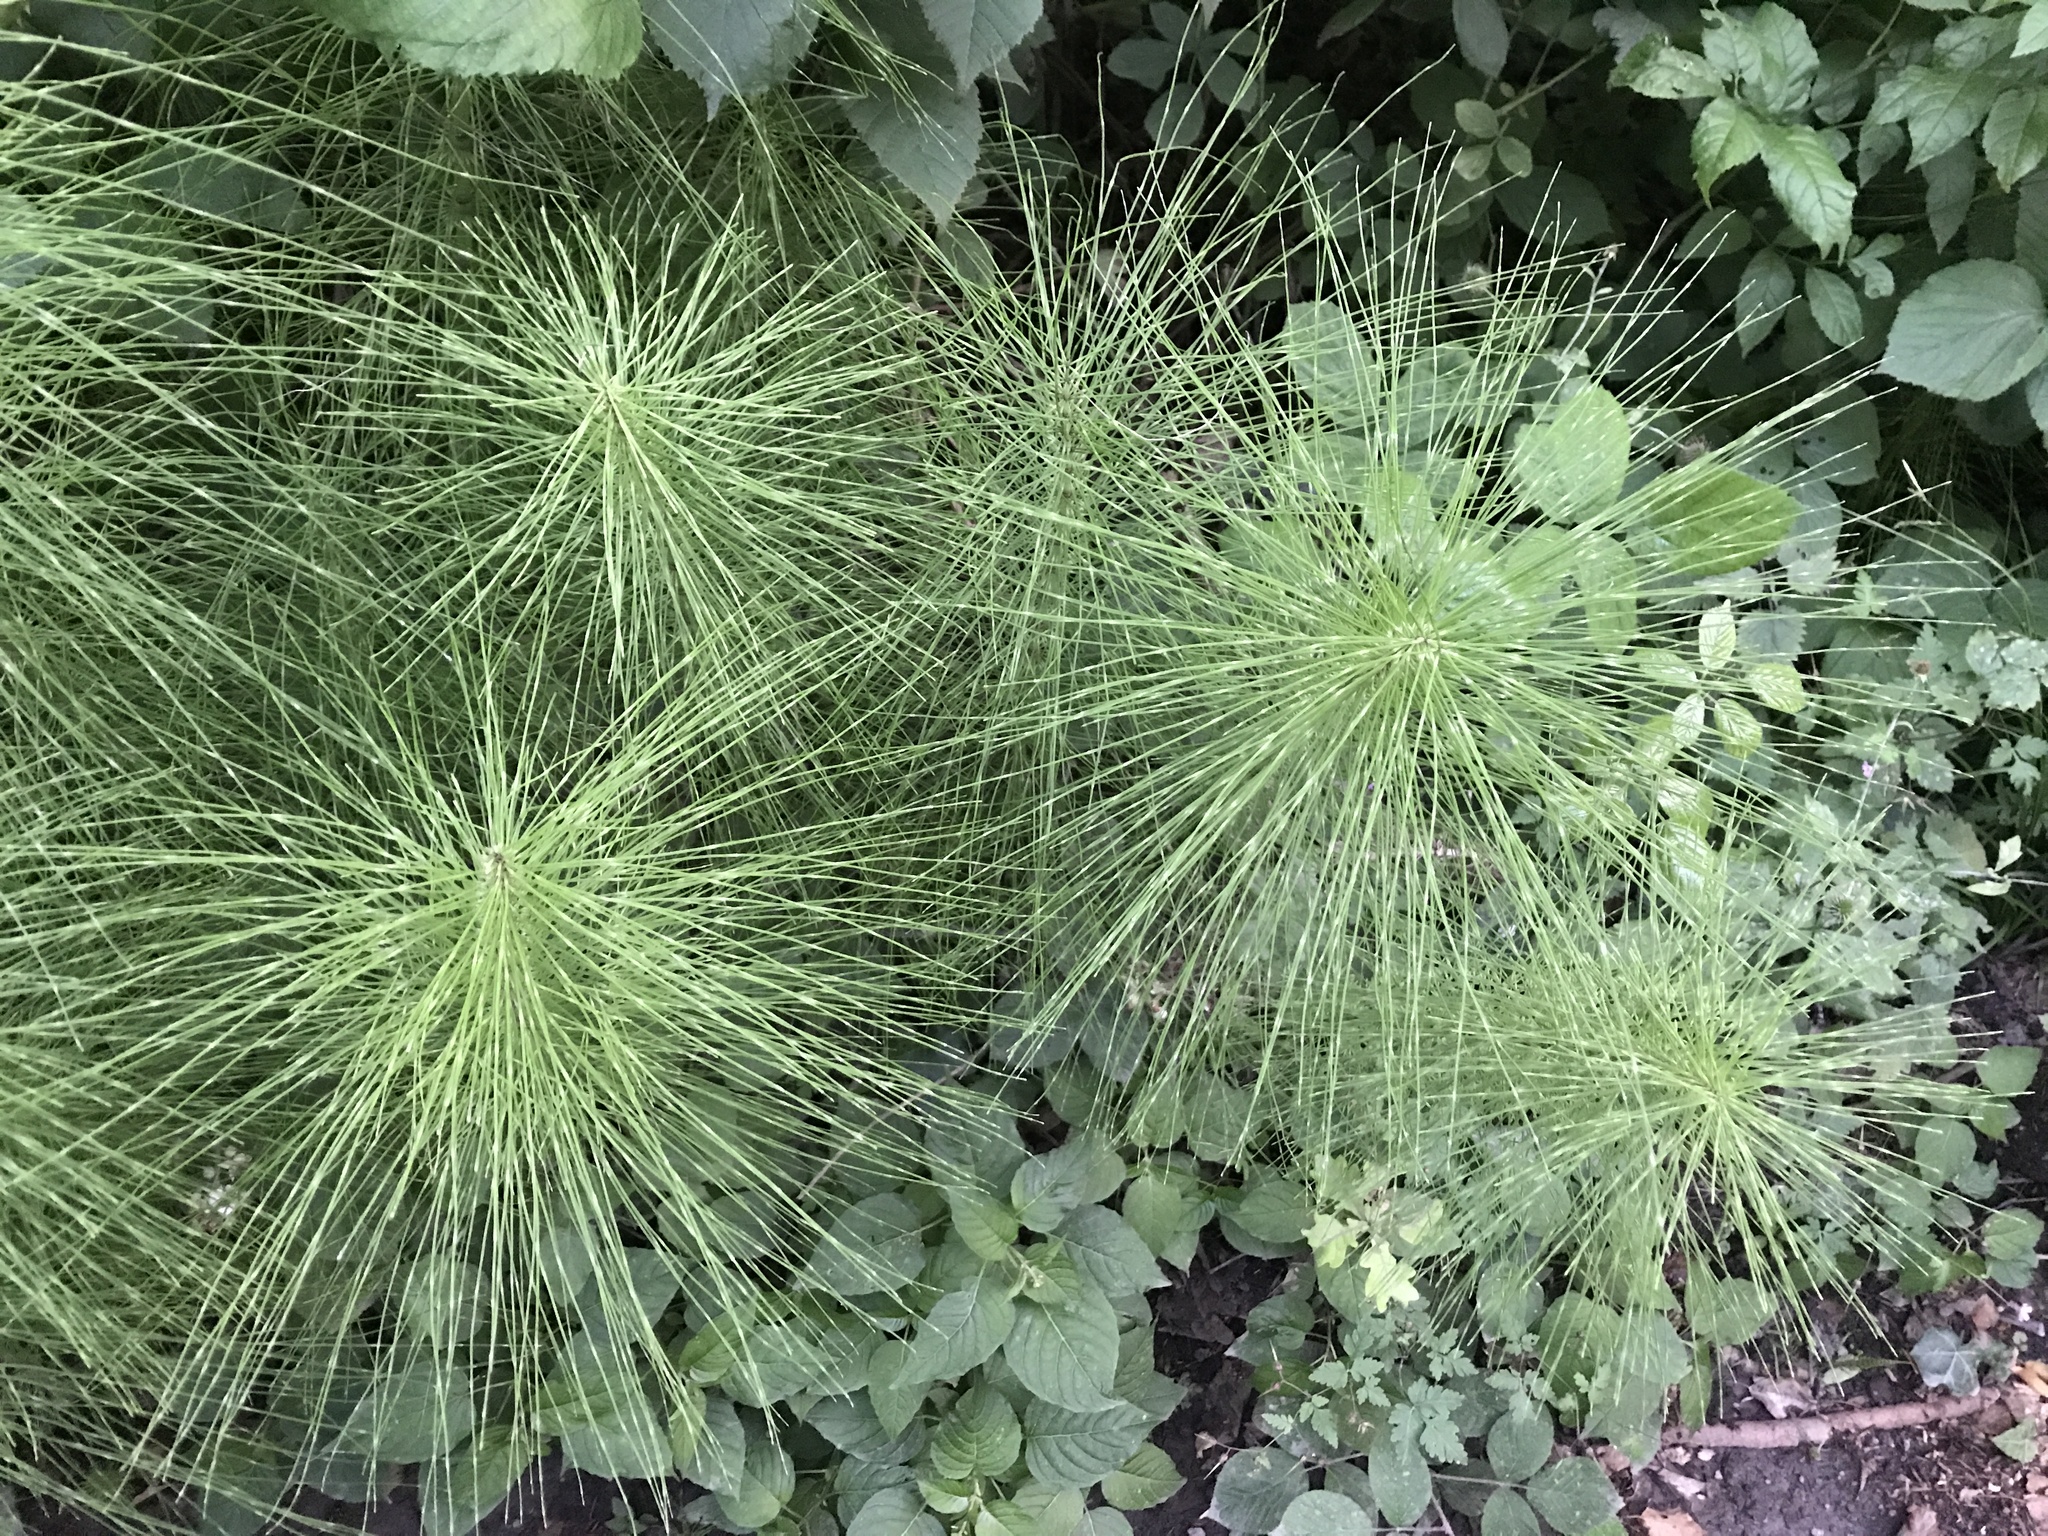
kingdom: Plantae
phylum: Tracheophyta
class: Polypodiopsida
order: Equisetales
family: Equisetaceae
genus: Equisetum
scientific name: Equisetum telmateia
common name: Great horsetail
